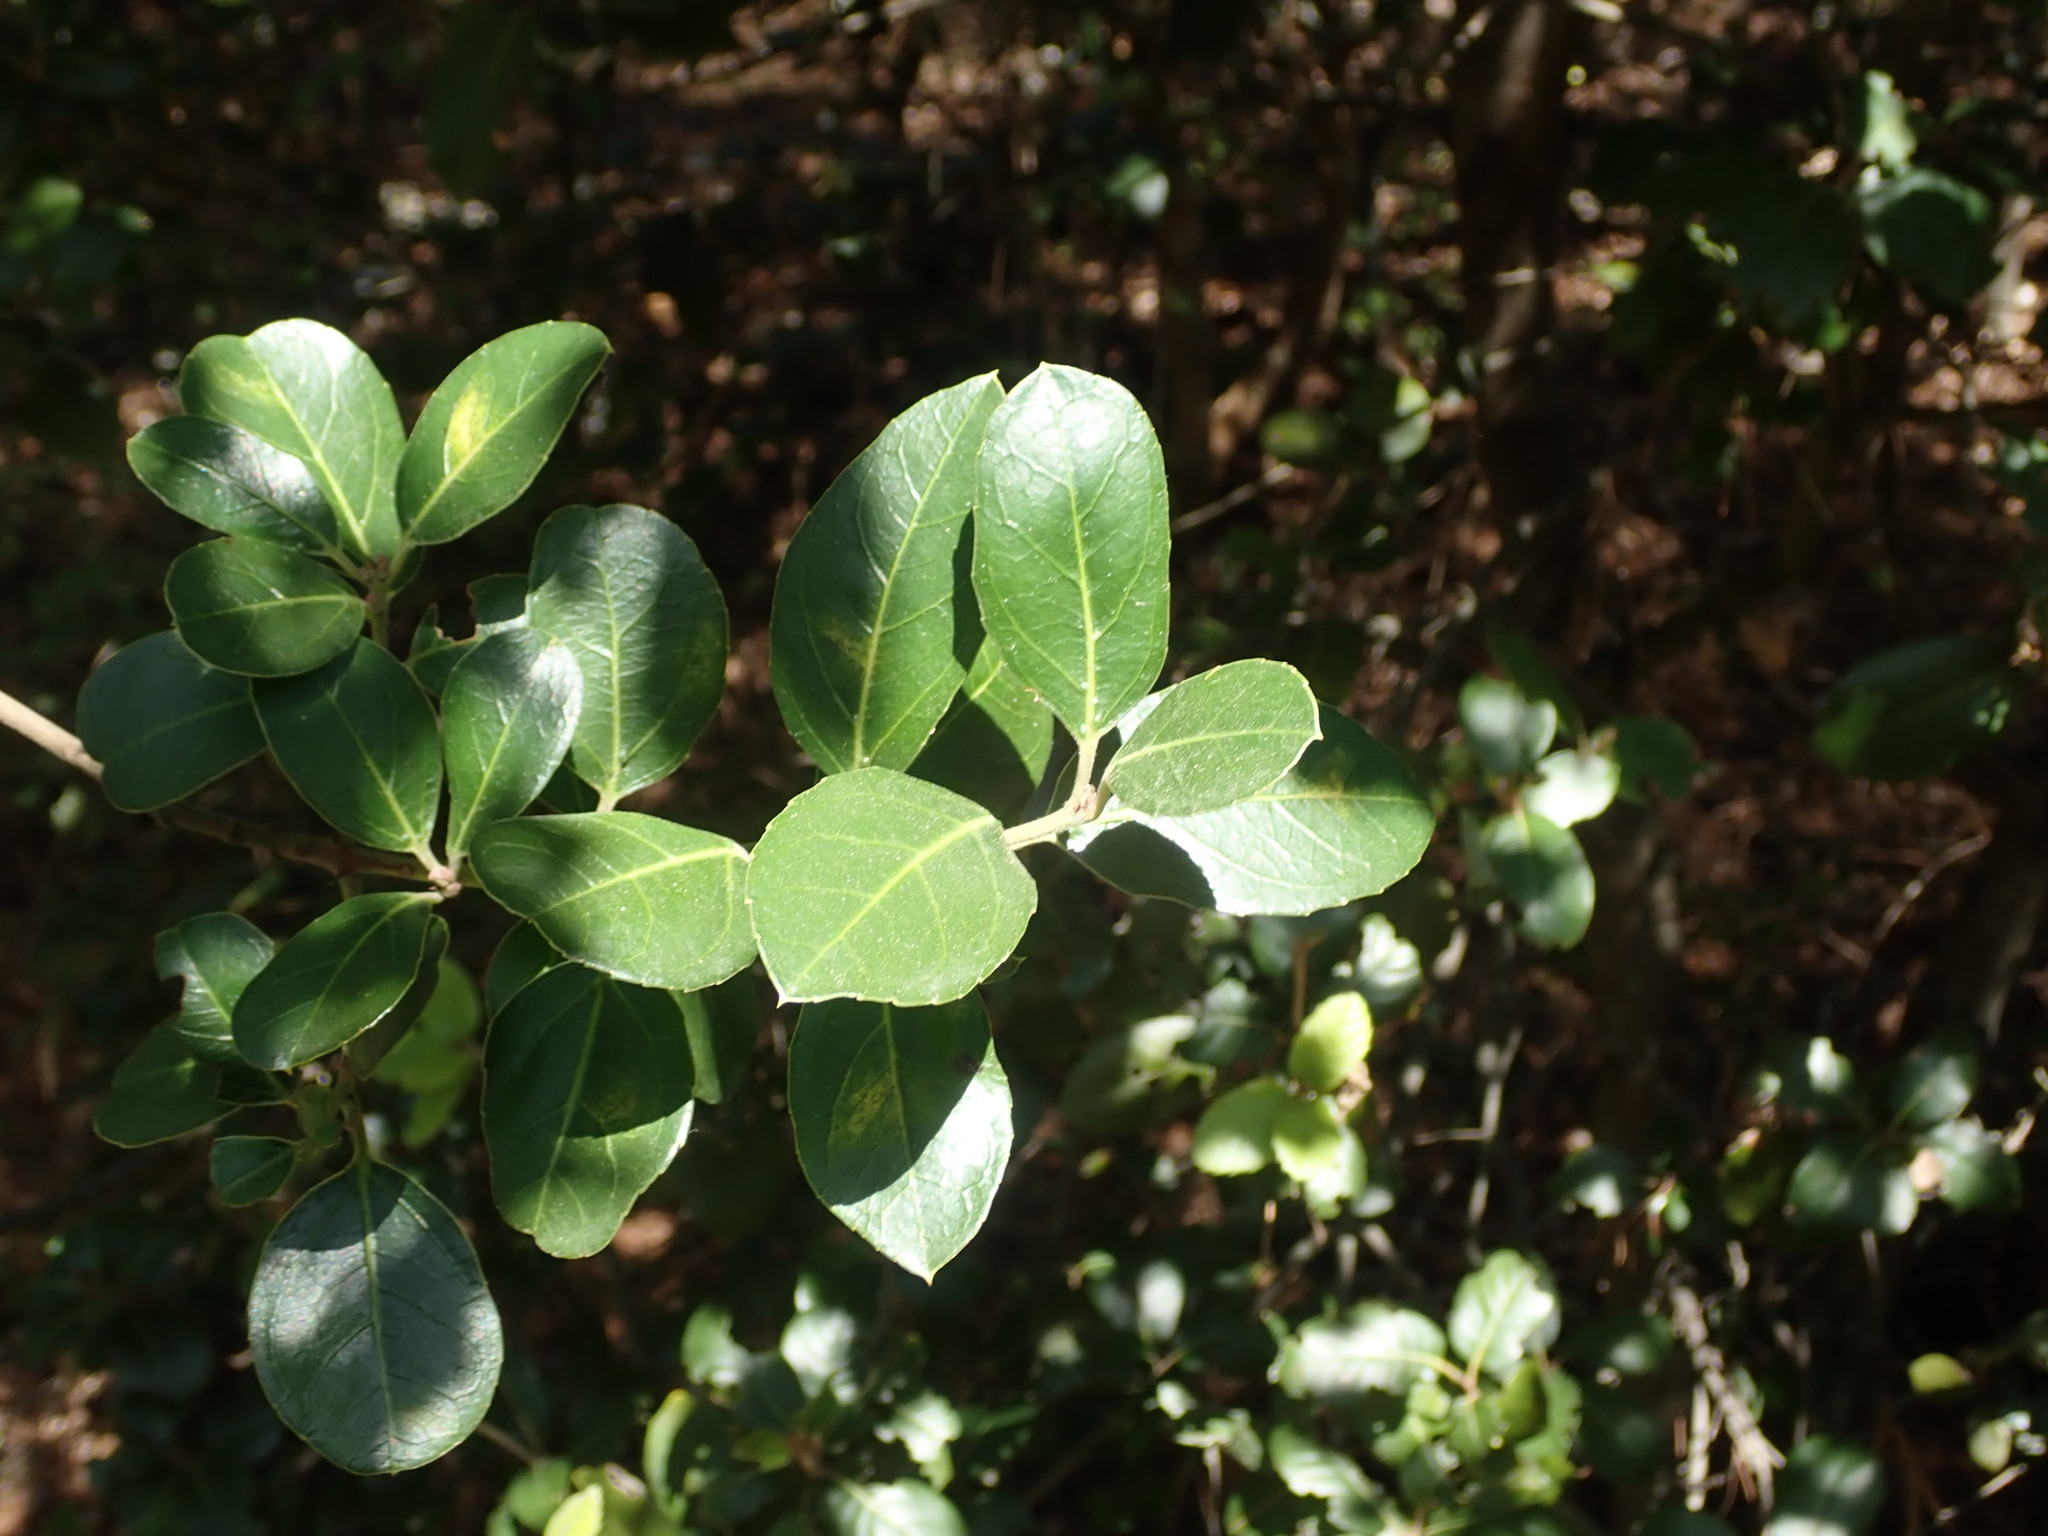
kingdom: Plantae
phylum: Tracheophyta
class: Magnoliopsida
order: Rosales
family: Rhamnaceae
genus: Rhamnus
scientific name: Rhamnus alaternus
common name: Mediterranean buckthorn
